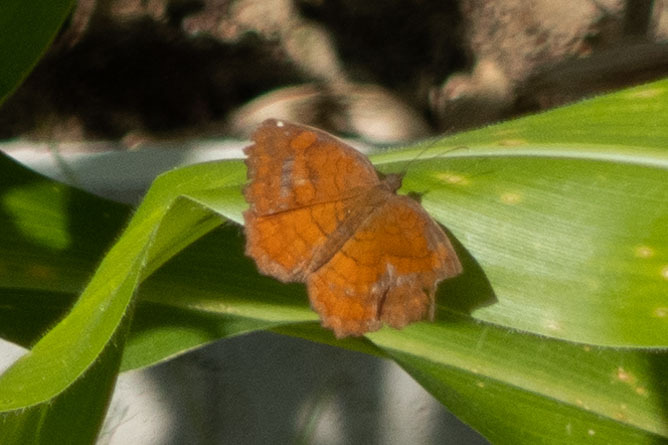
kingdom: Animalia
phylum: Arthropoda
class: Insecta
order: Lepidoptera
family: Nymphalidae
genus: Ariadne
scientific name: Ariadne ariadne
